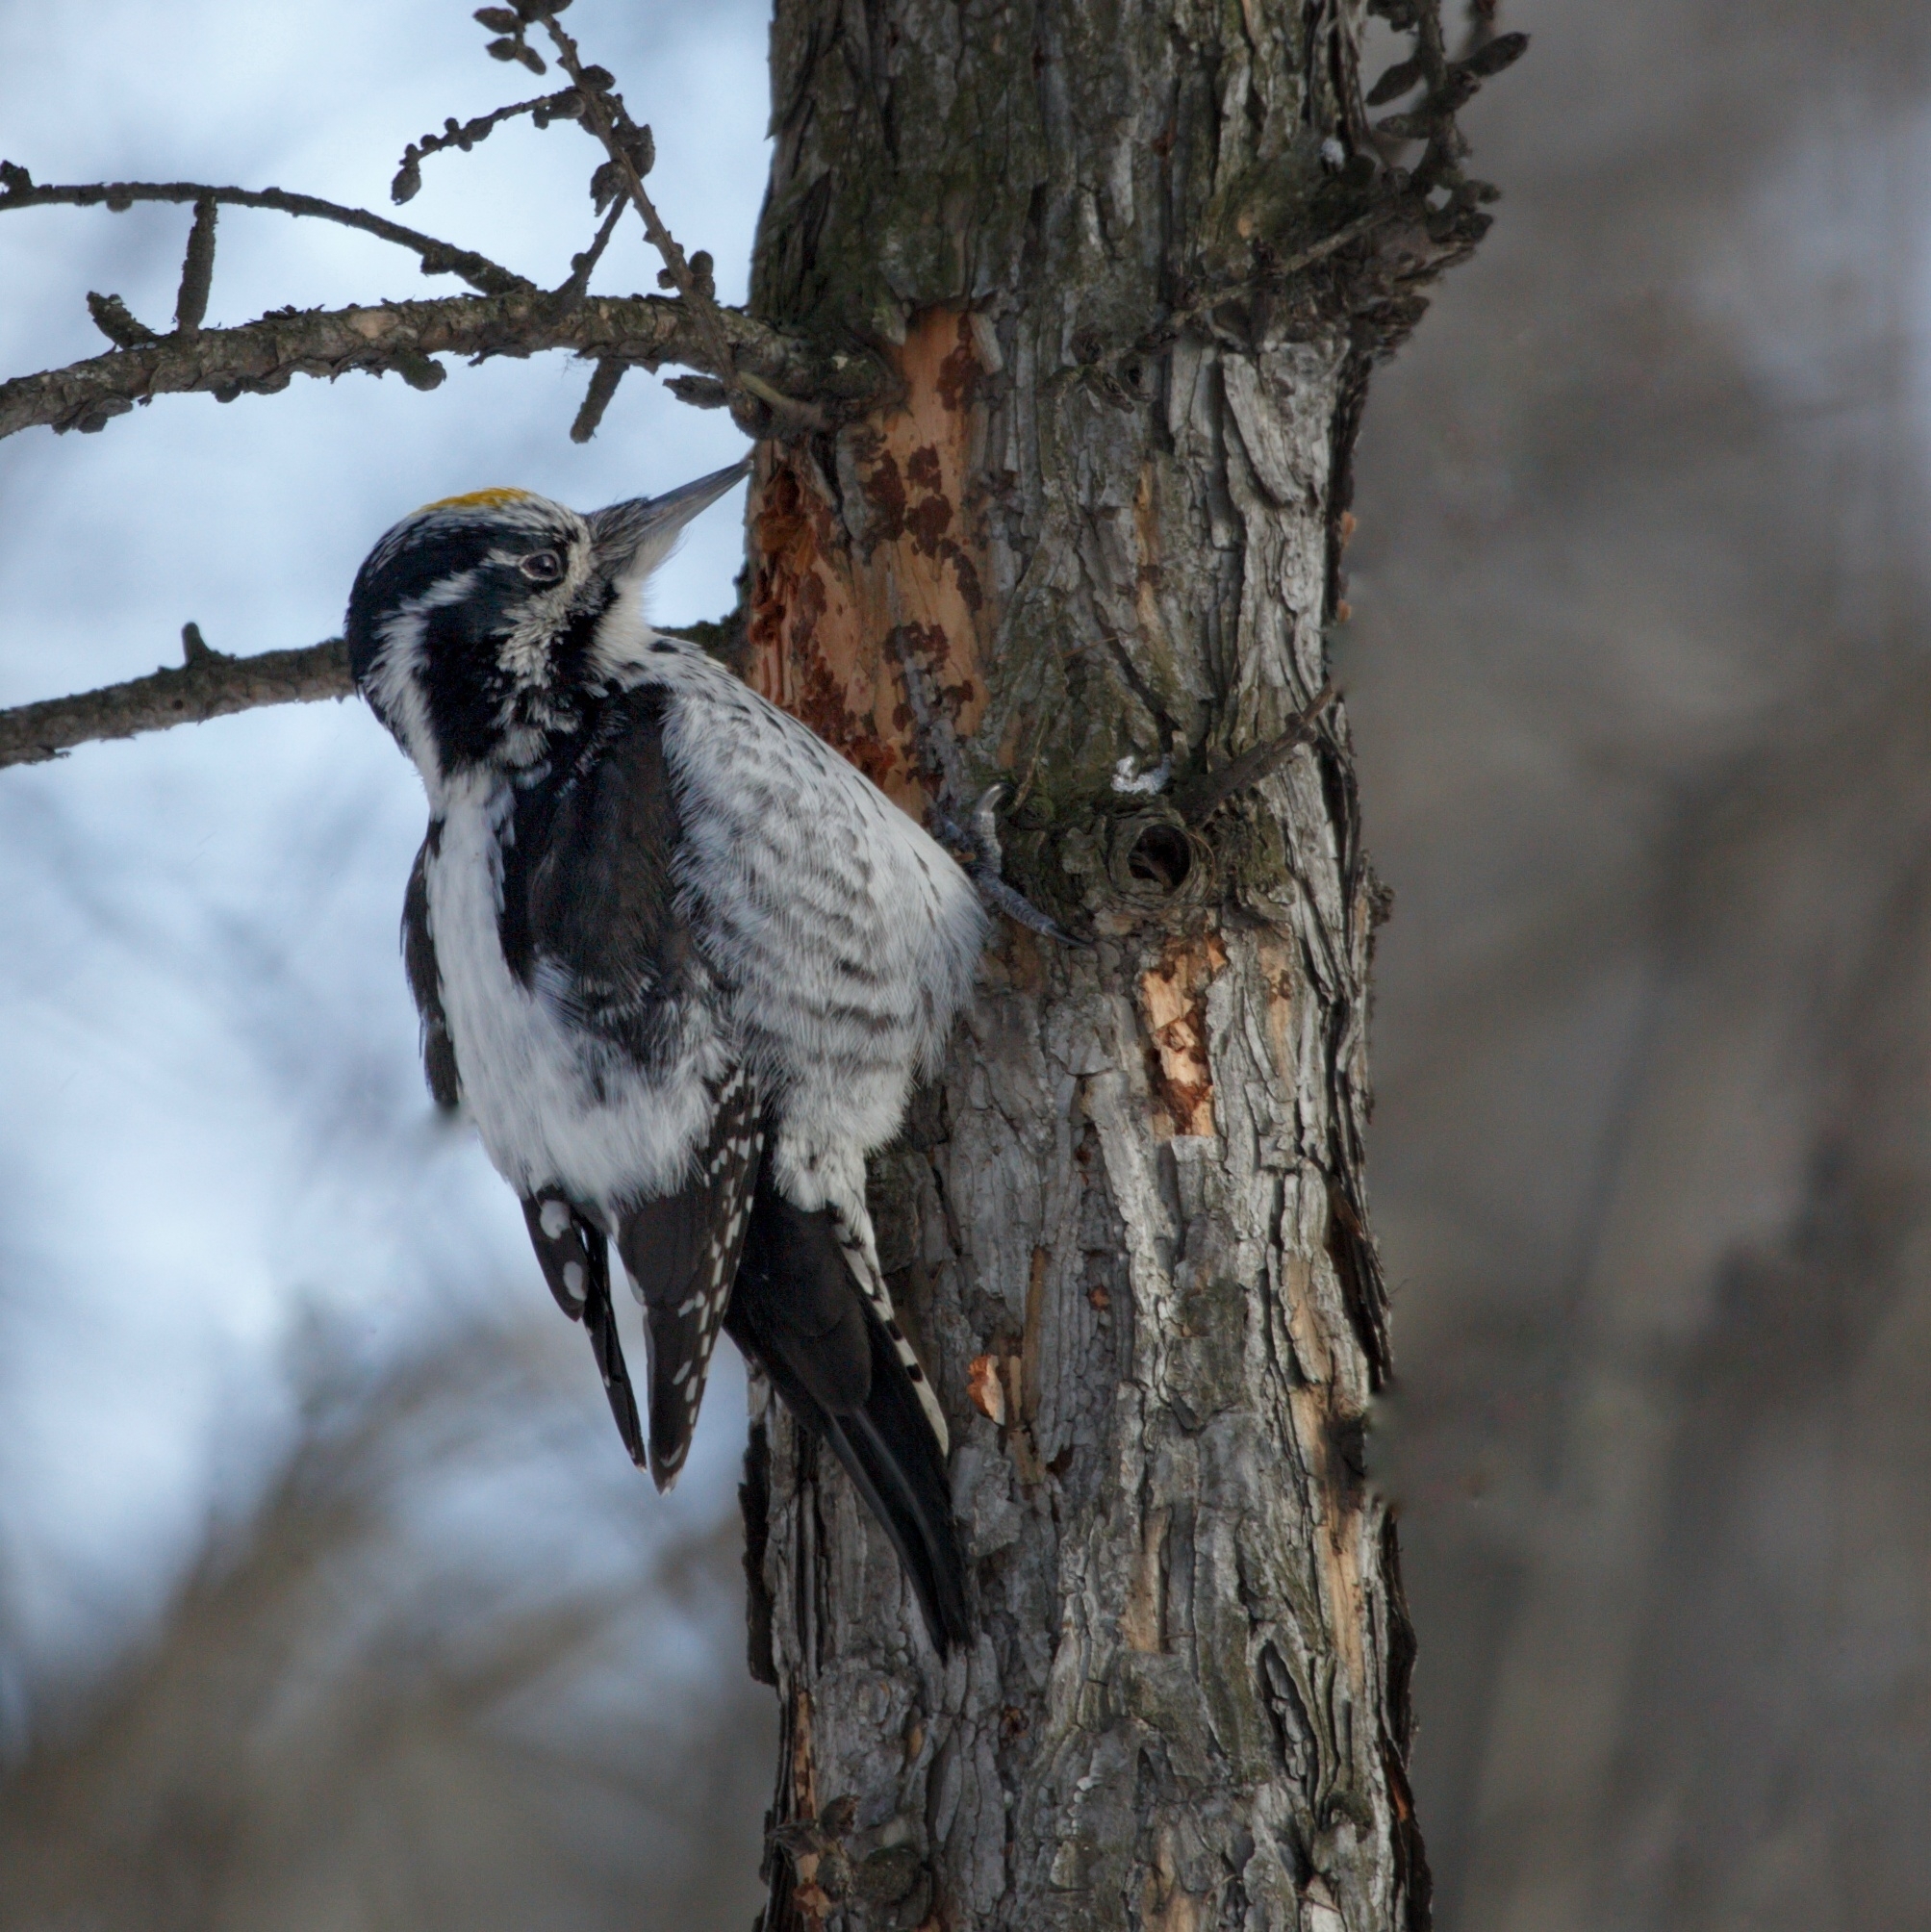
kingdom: Animalia
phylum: Chordata
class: Aves
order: Piciformes
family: Picidae
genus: Picoides
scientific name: Picoides tridactylus
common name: Eurasian three-toed woodpecker
